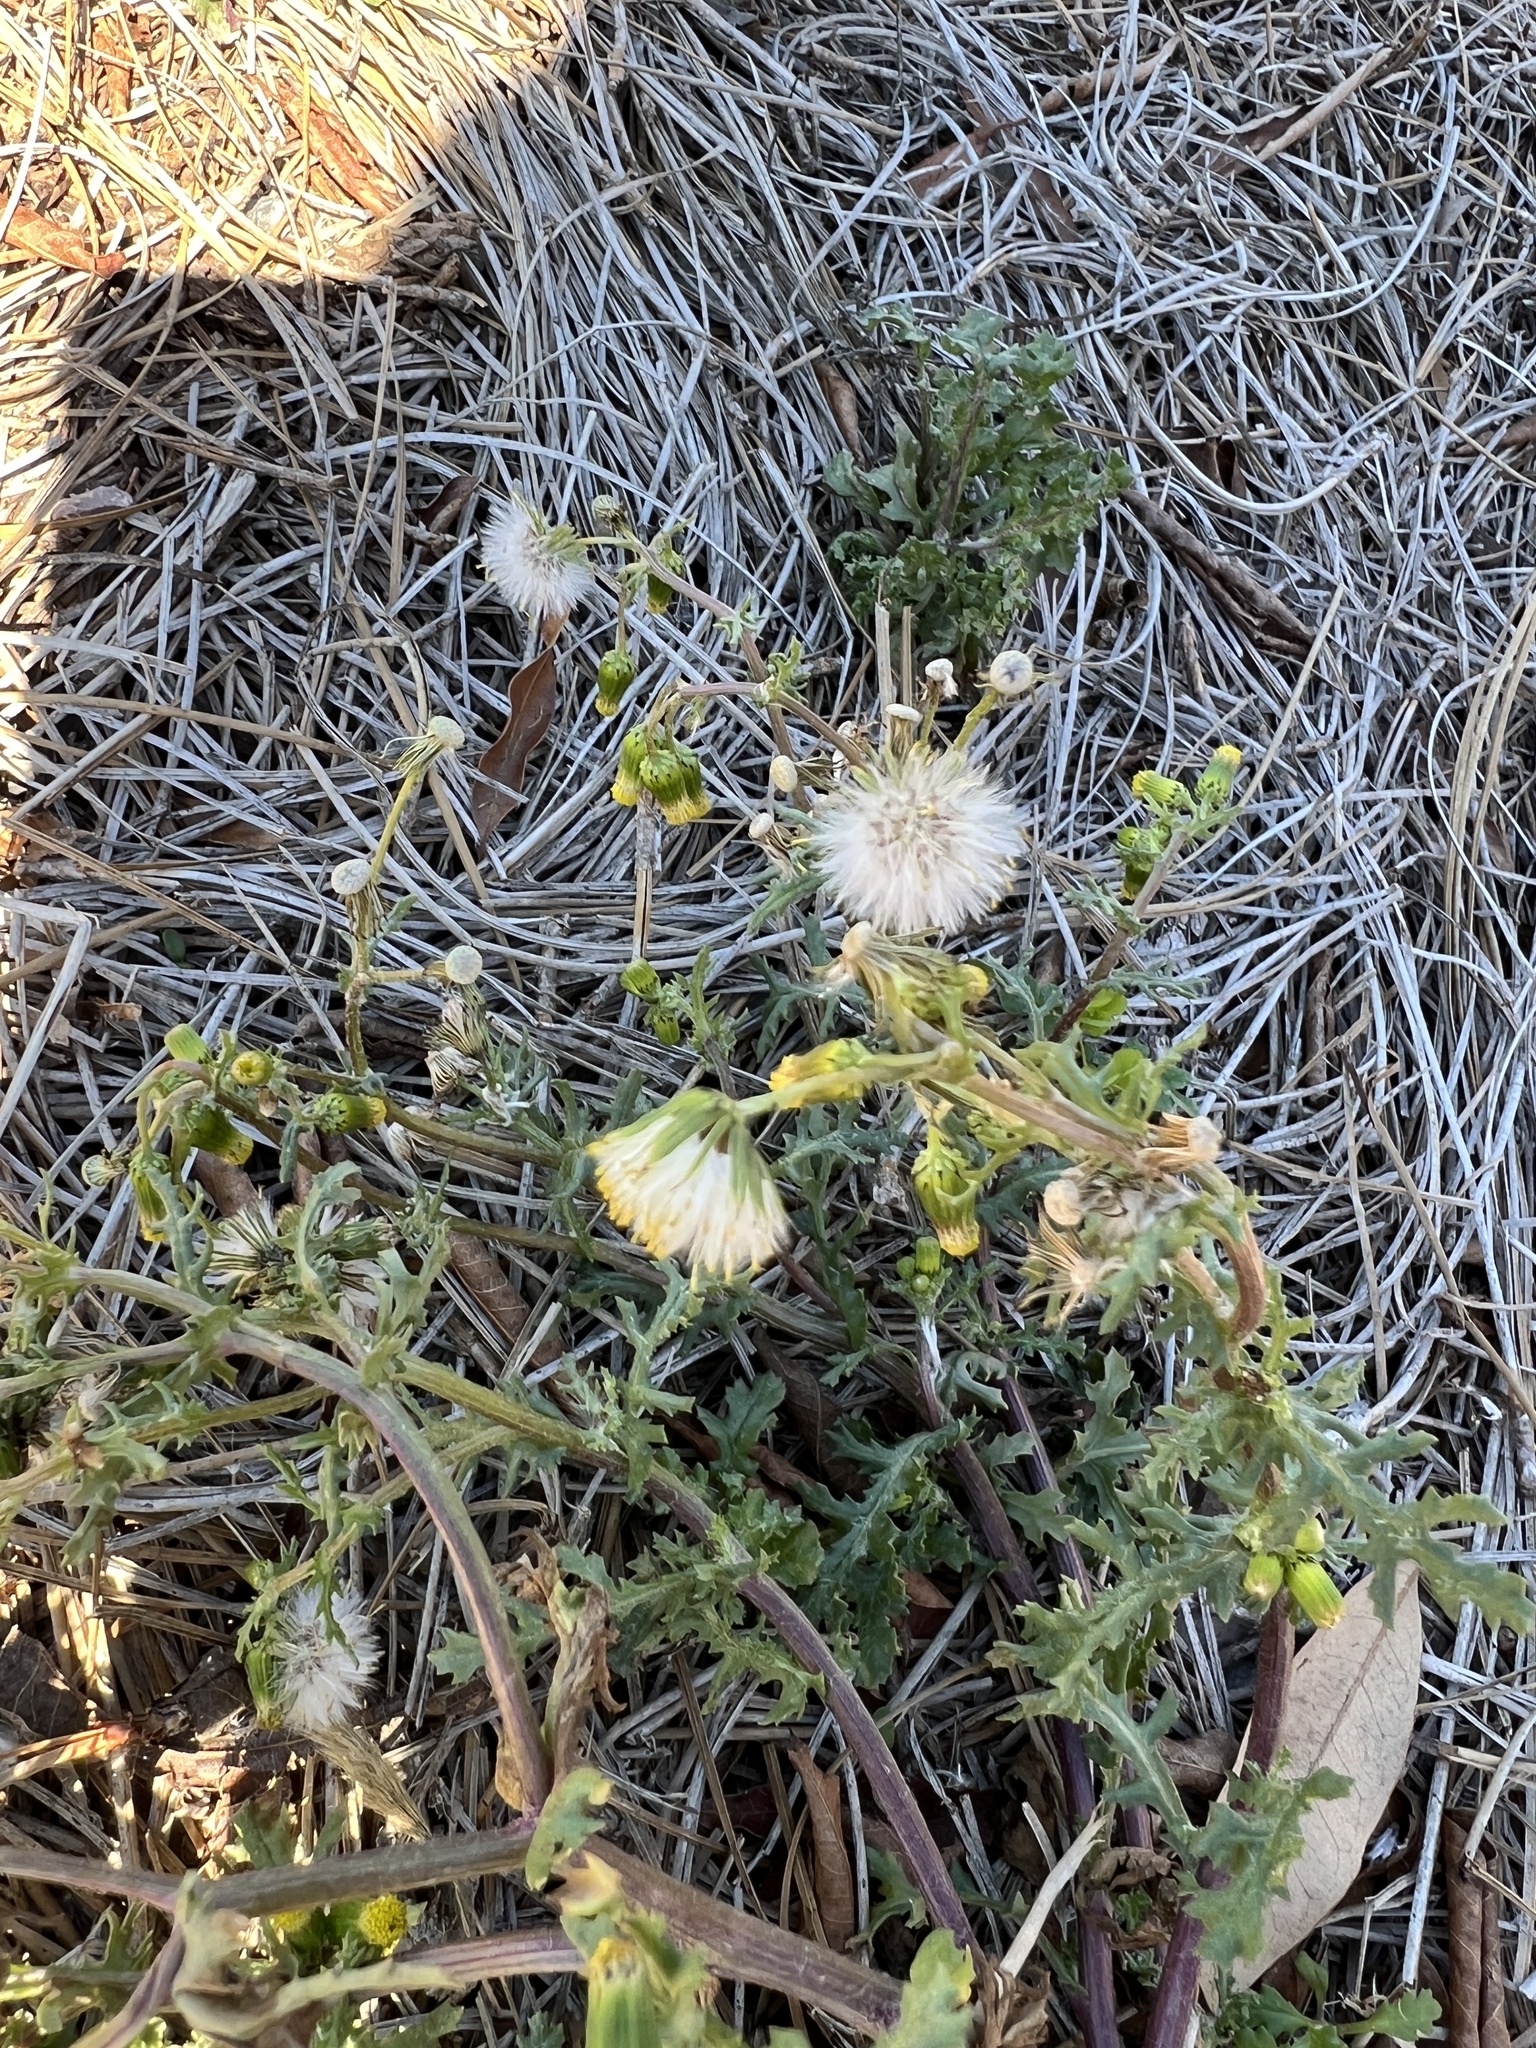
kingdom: Plantae
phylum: Tracheophyta
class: Magnoliopsida
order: Asterales
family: Asteraceae
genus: Senecio
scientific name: Senecio vulgaris
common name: Old-man-in-the-spring
